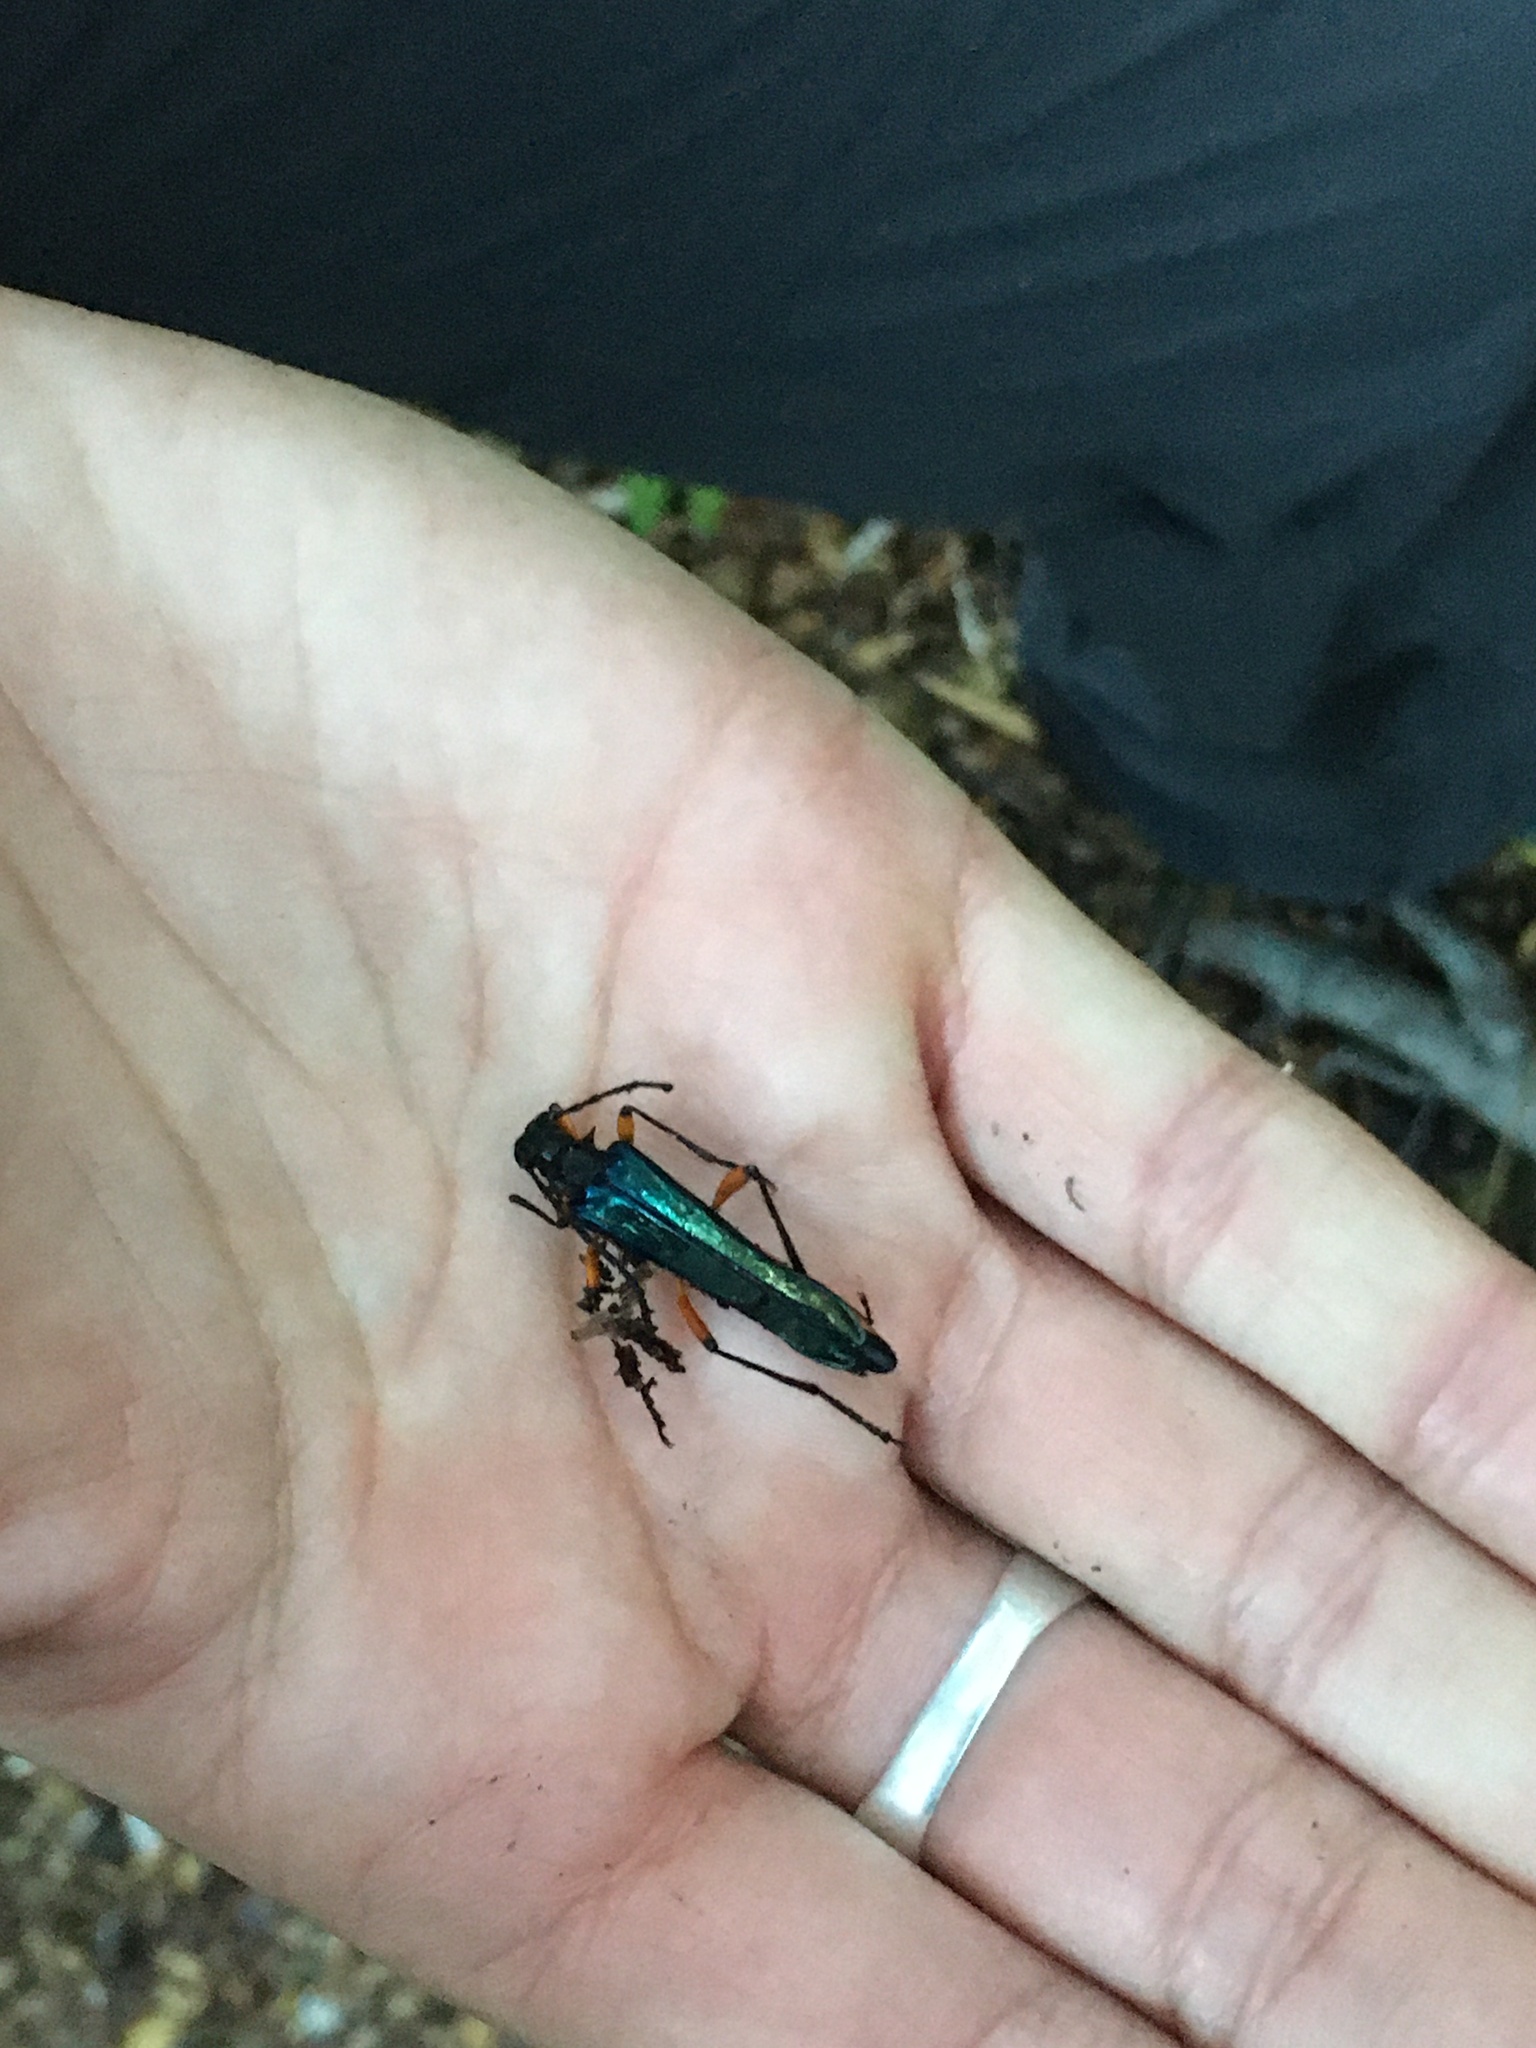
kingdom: Animalia
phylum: Arthropoda
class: Insecta
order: Coleoptera
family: Cerambycidae
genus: Hephaestion
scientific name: Hephaestion ocreatum
